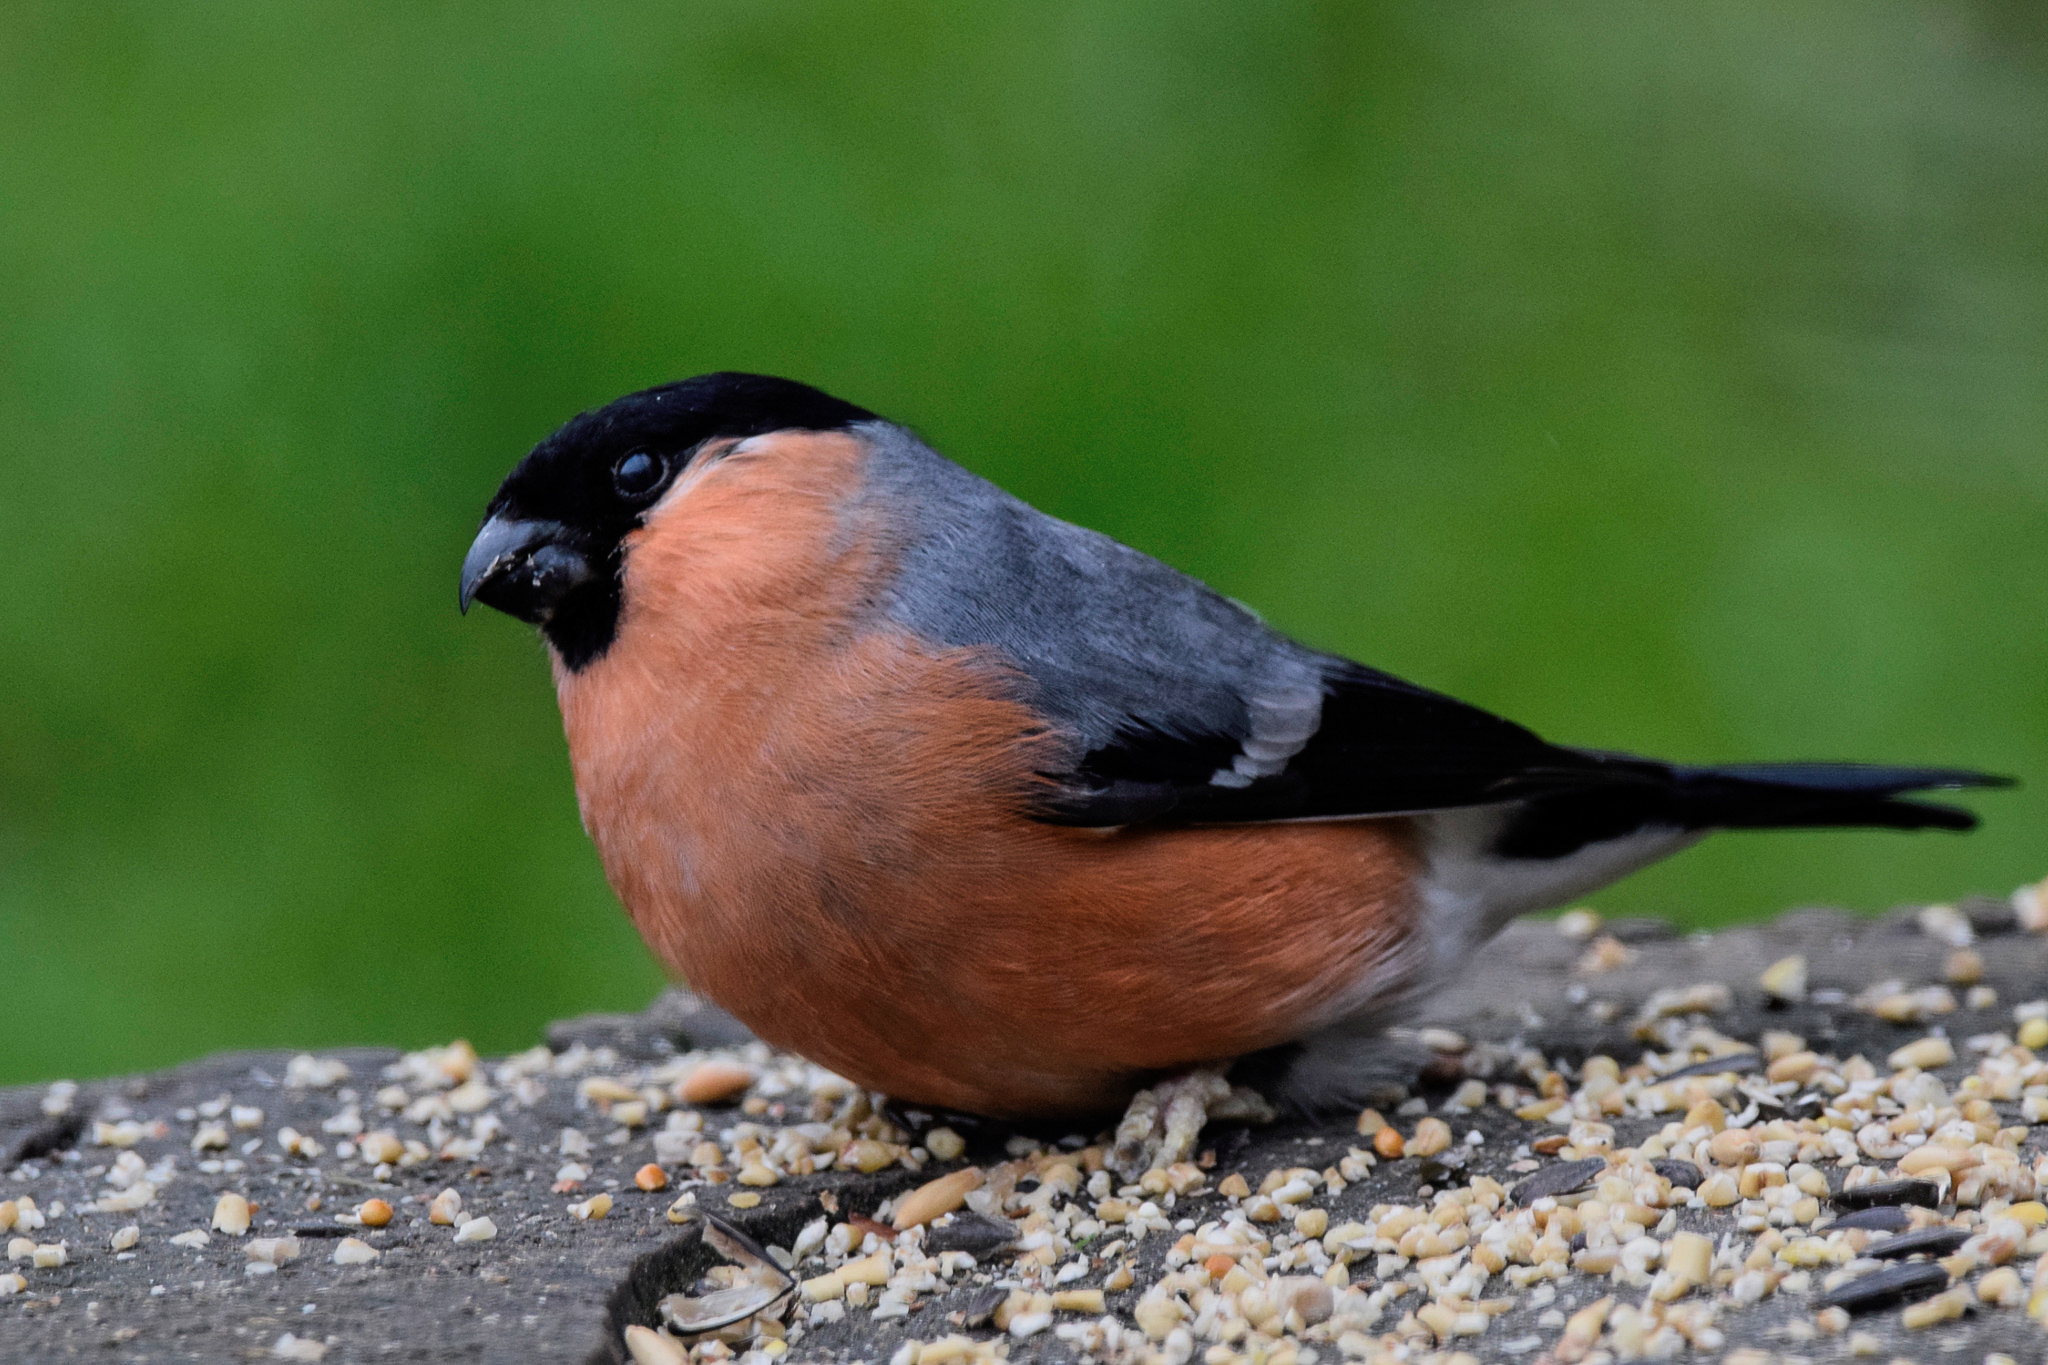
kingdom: Animalia
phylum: Chordata
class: Aves
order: Passeriformes
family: Fringillidae
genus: Pyrrhula
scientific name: Pyrrhula pyrrhula
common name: Eurasian bullfinch
